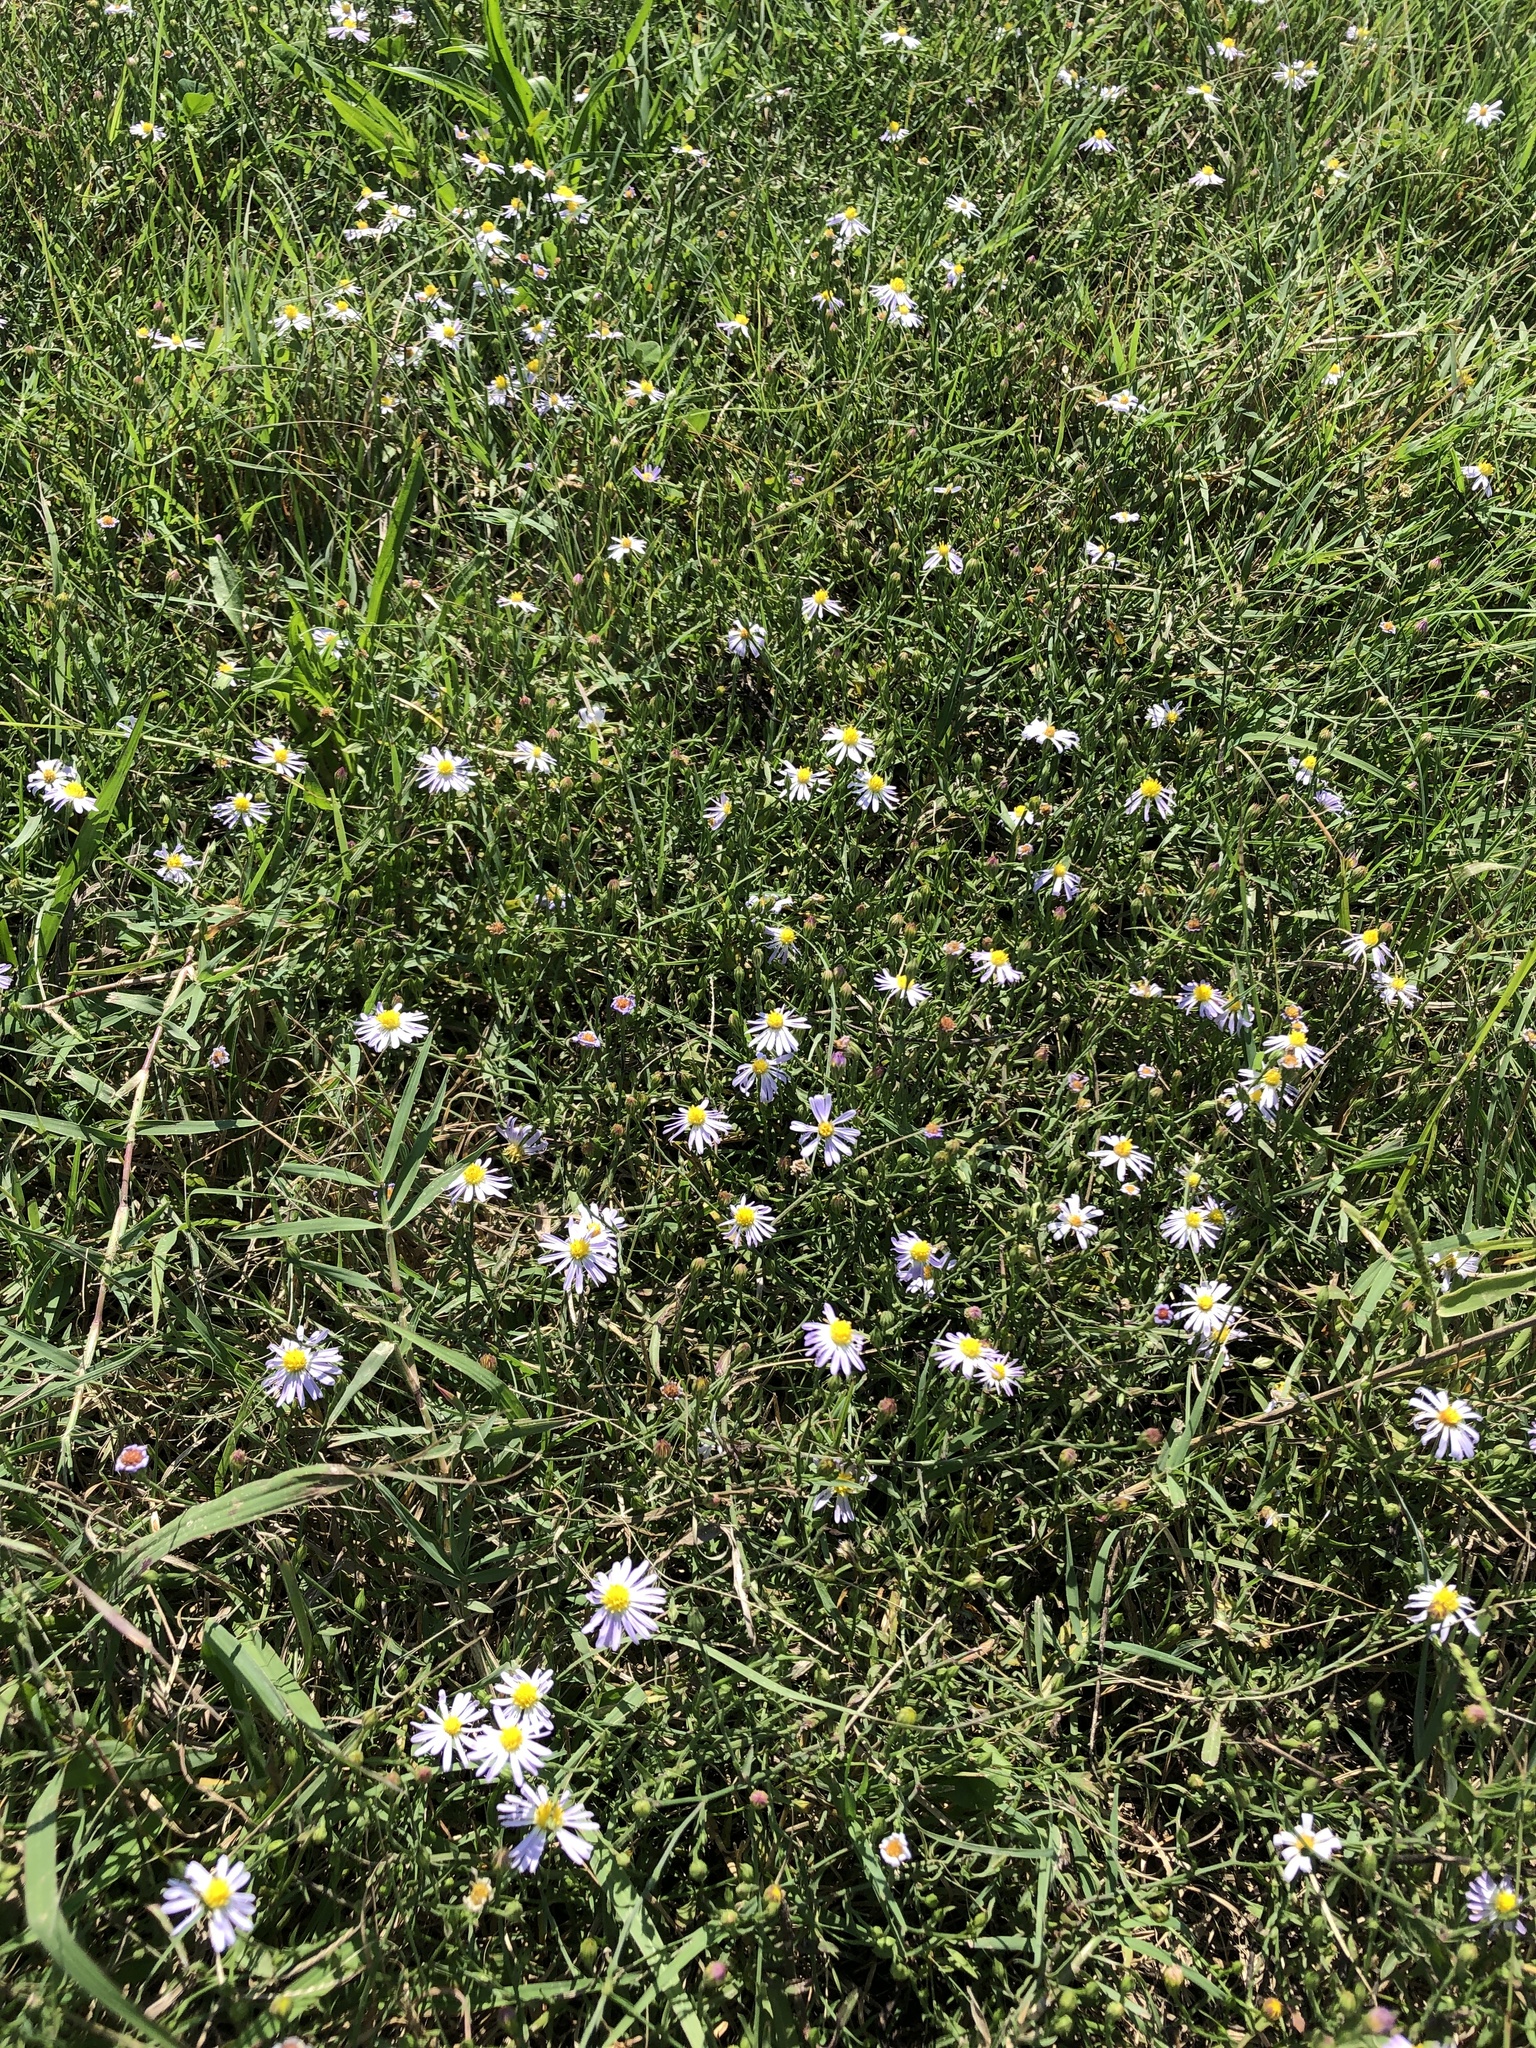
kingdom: Plantae
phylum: Tracheophyta
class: Magnoliopsida
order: Asterales
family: Asteraceae
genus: Symphyotrichum
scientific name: Symphyotrichum divaricatum
